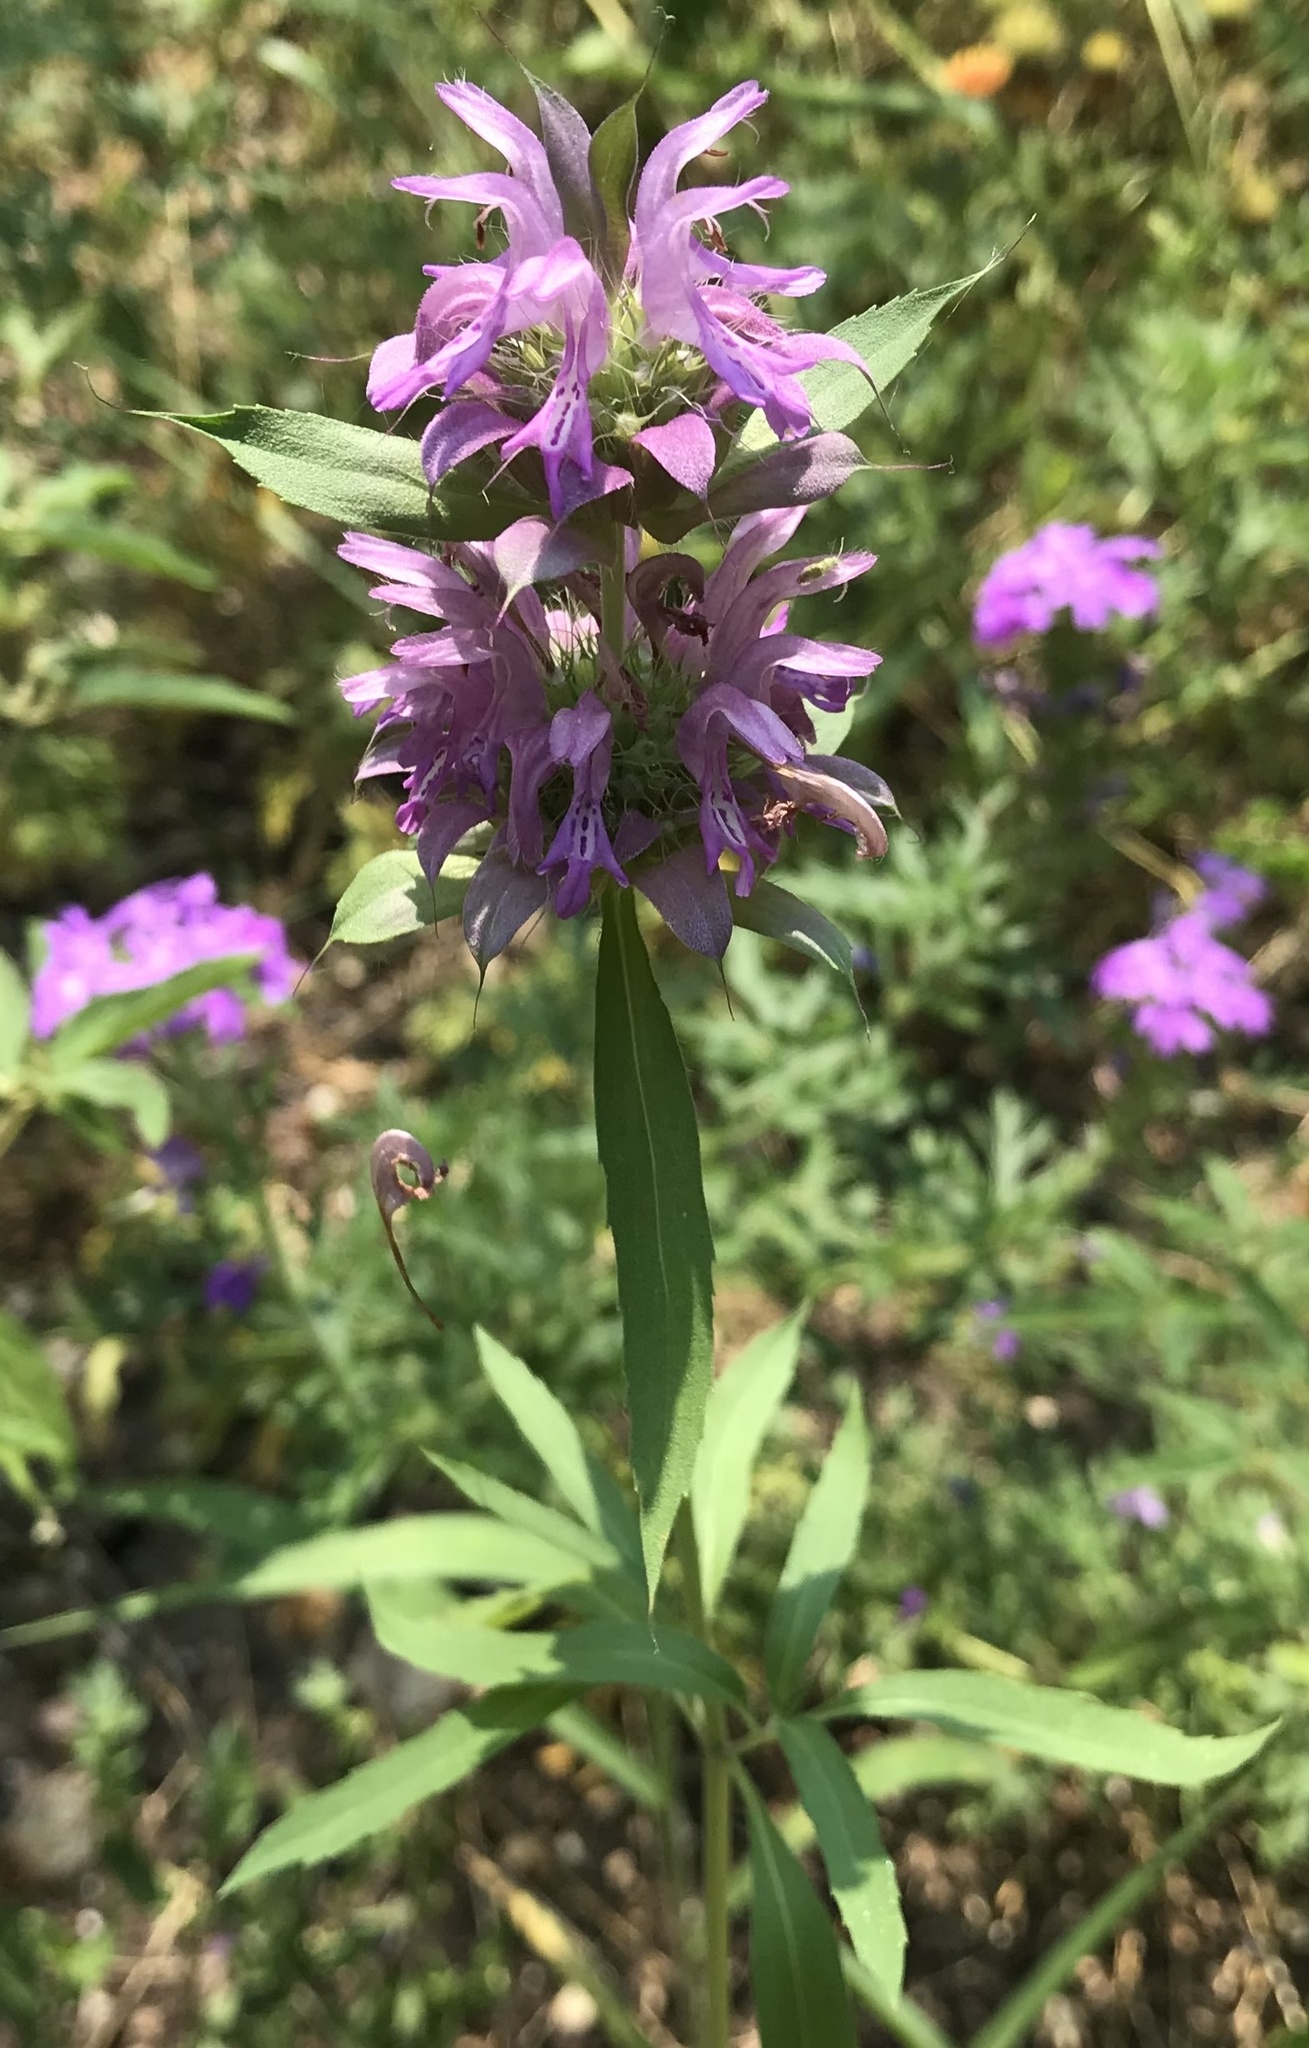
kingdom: Plantae
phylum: Tracheophyta
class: Magnoliopsida
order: Lamiales
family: Lamiaceae
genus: Monarda
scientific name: Monarda citriodora
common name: Lemon beebalm
